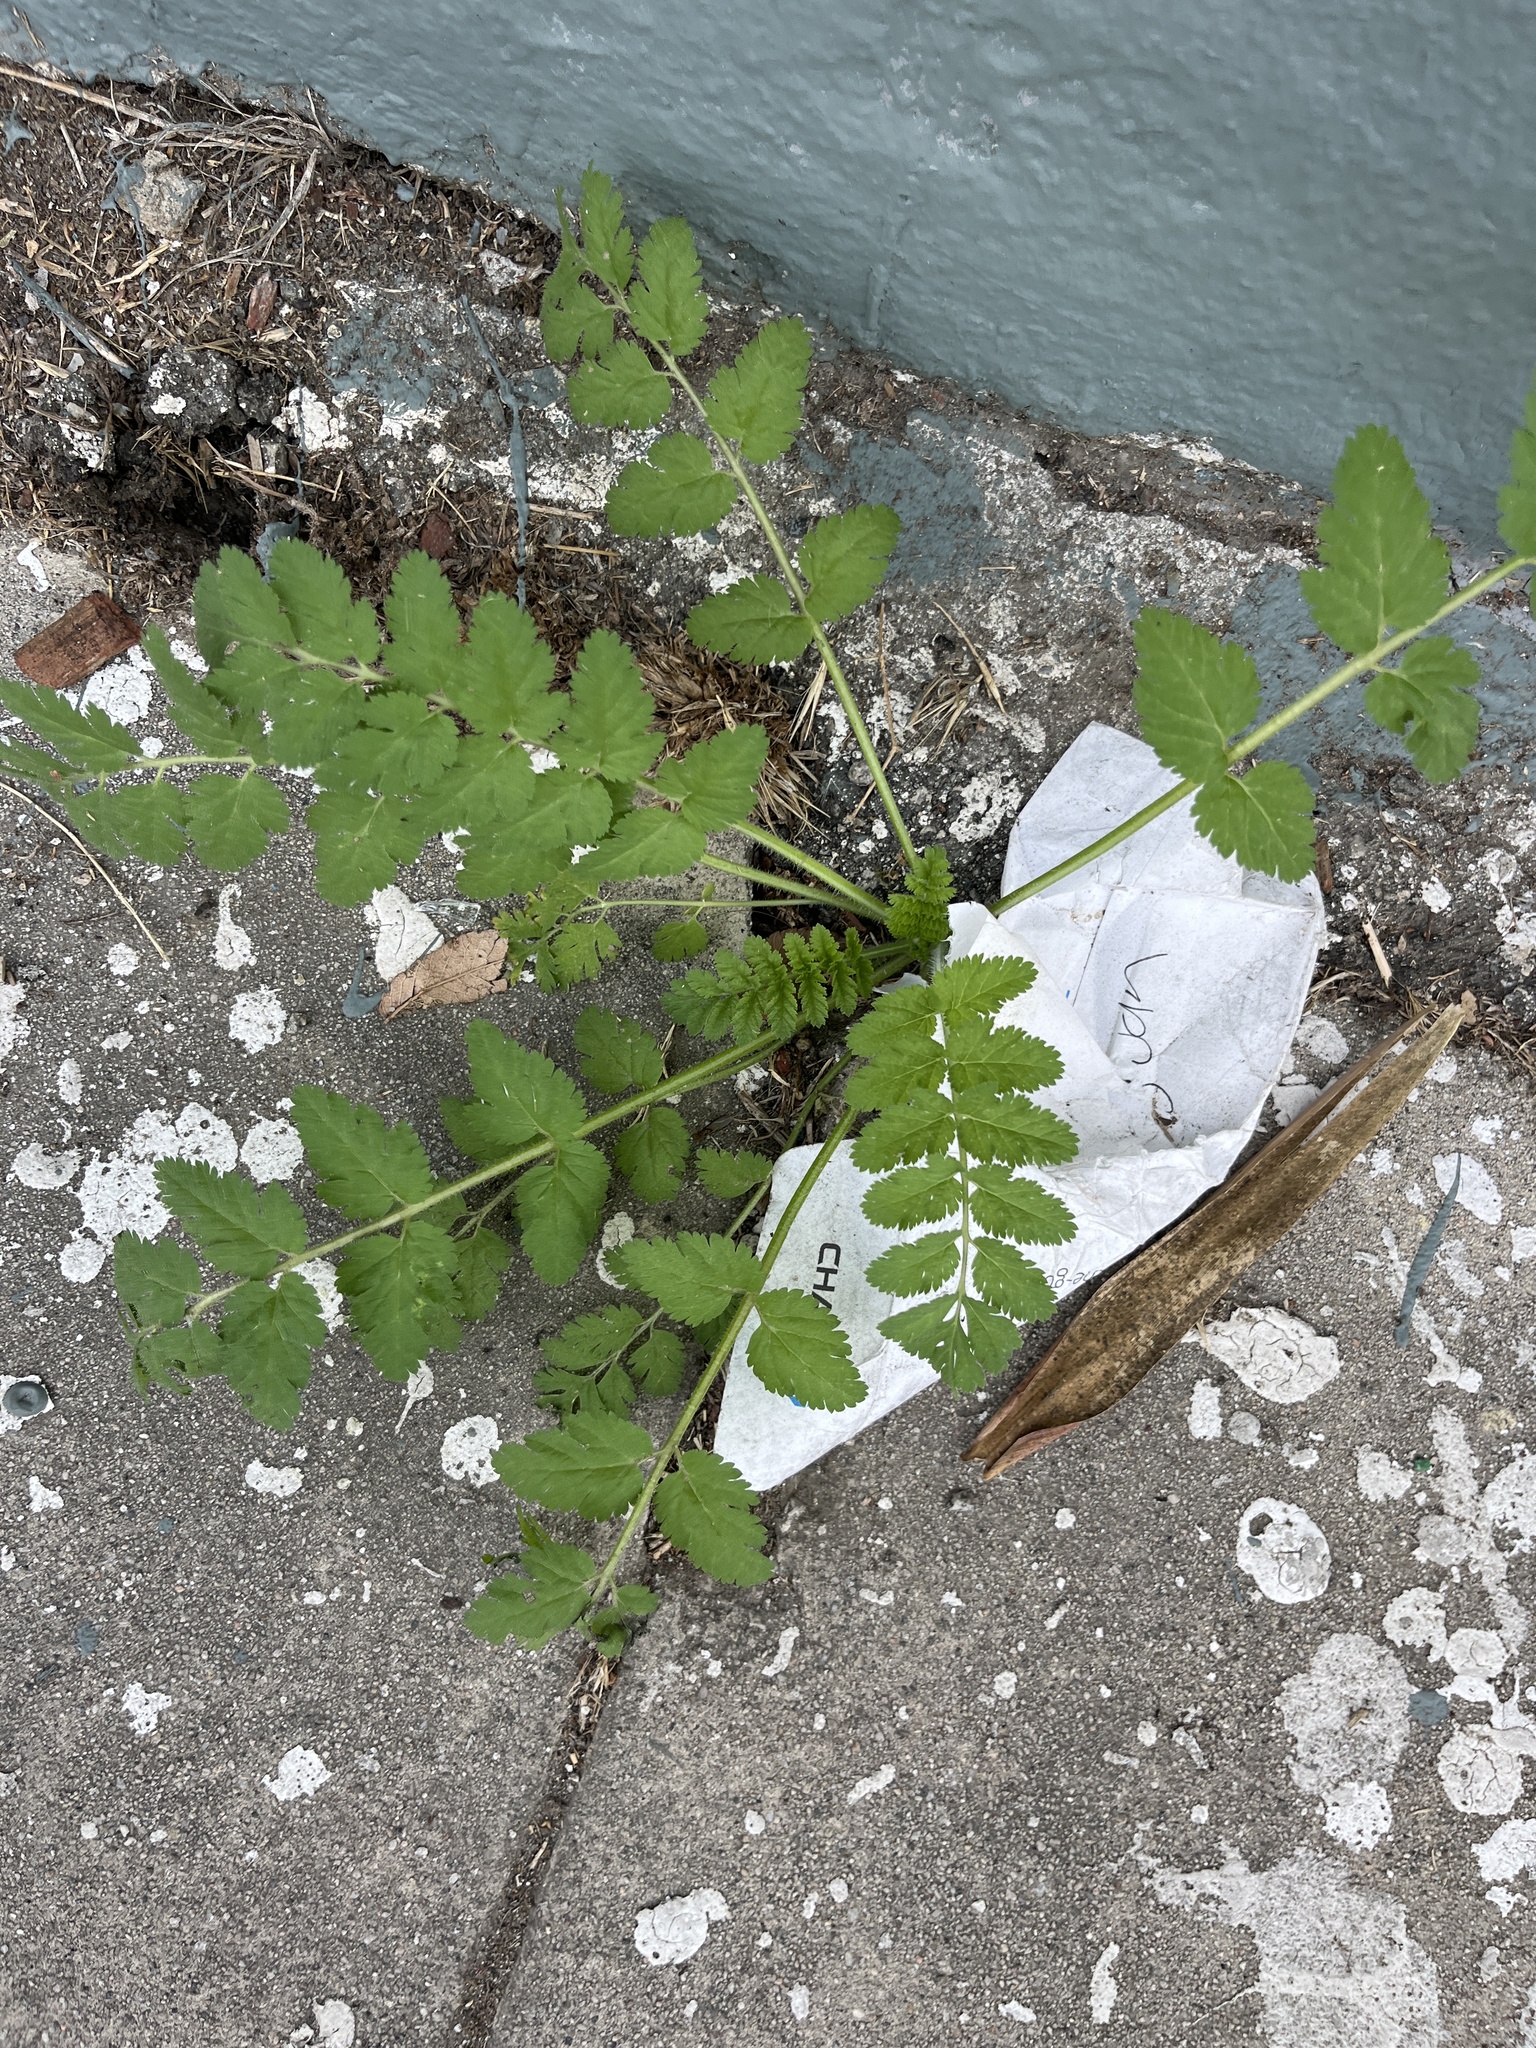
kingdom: Plantae
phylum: Tracheophyta
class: Magnoliopsida
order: Geraniales
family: Geraniaceae
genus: Erodium
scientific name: Erodium moschatum
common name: Musk stork's-bill
